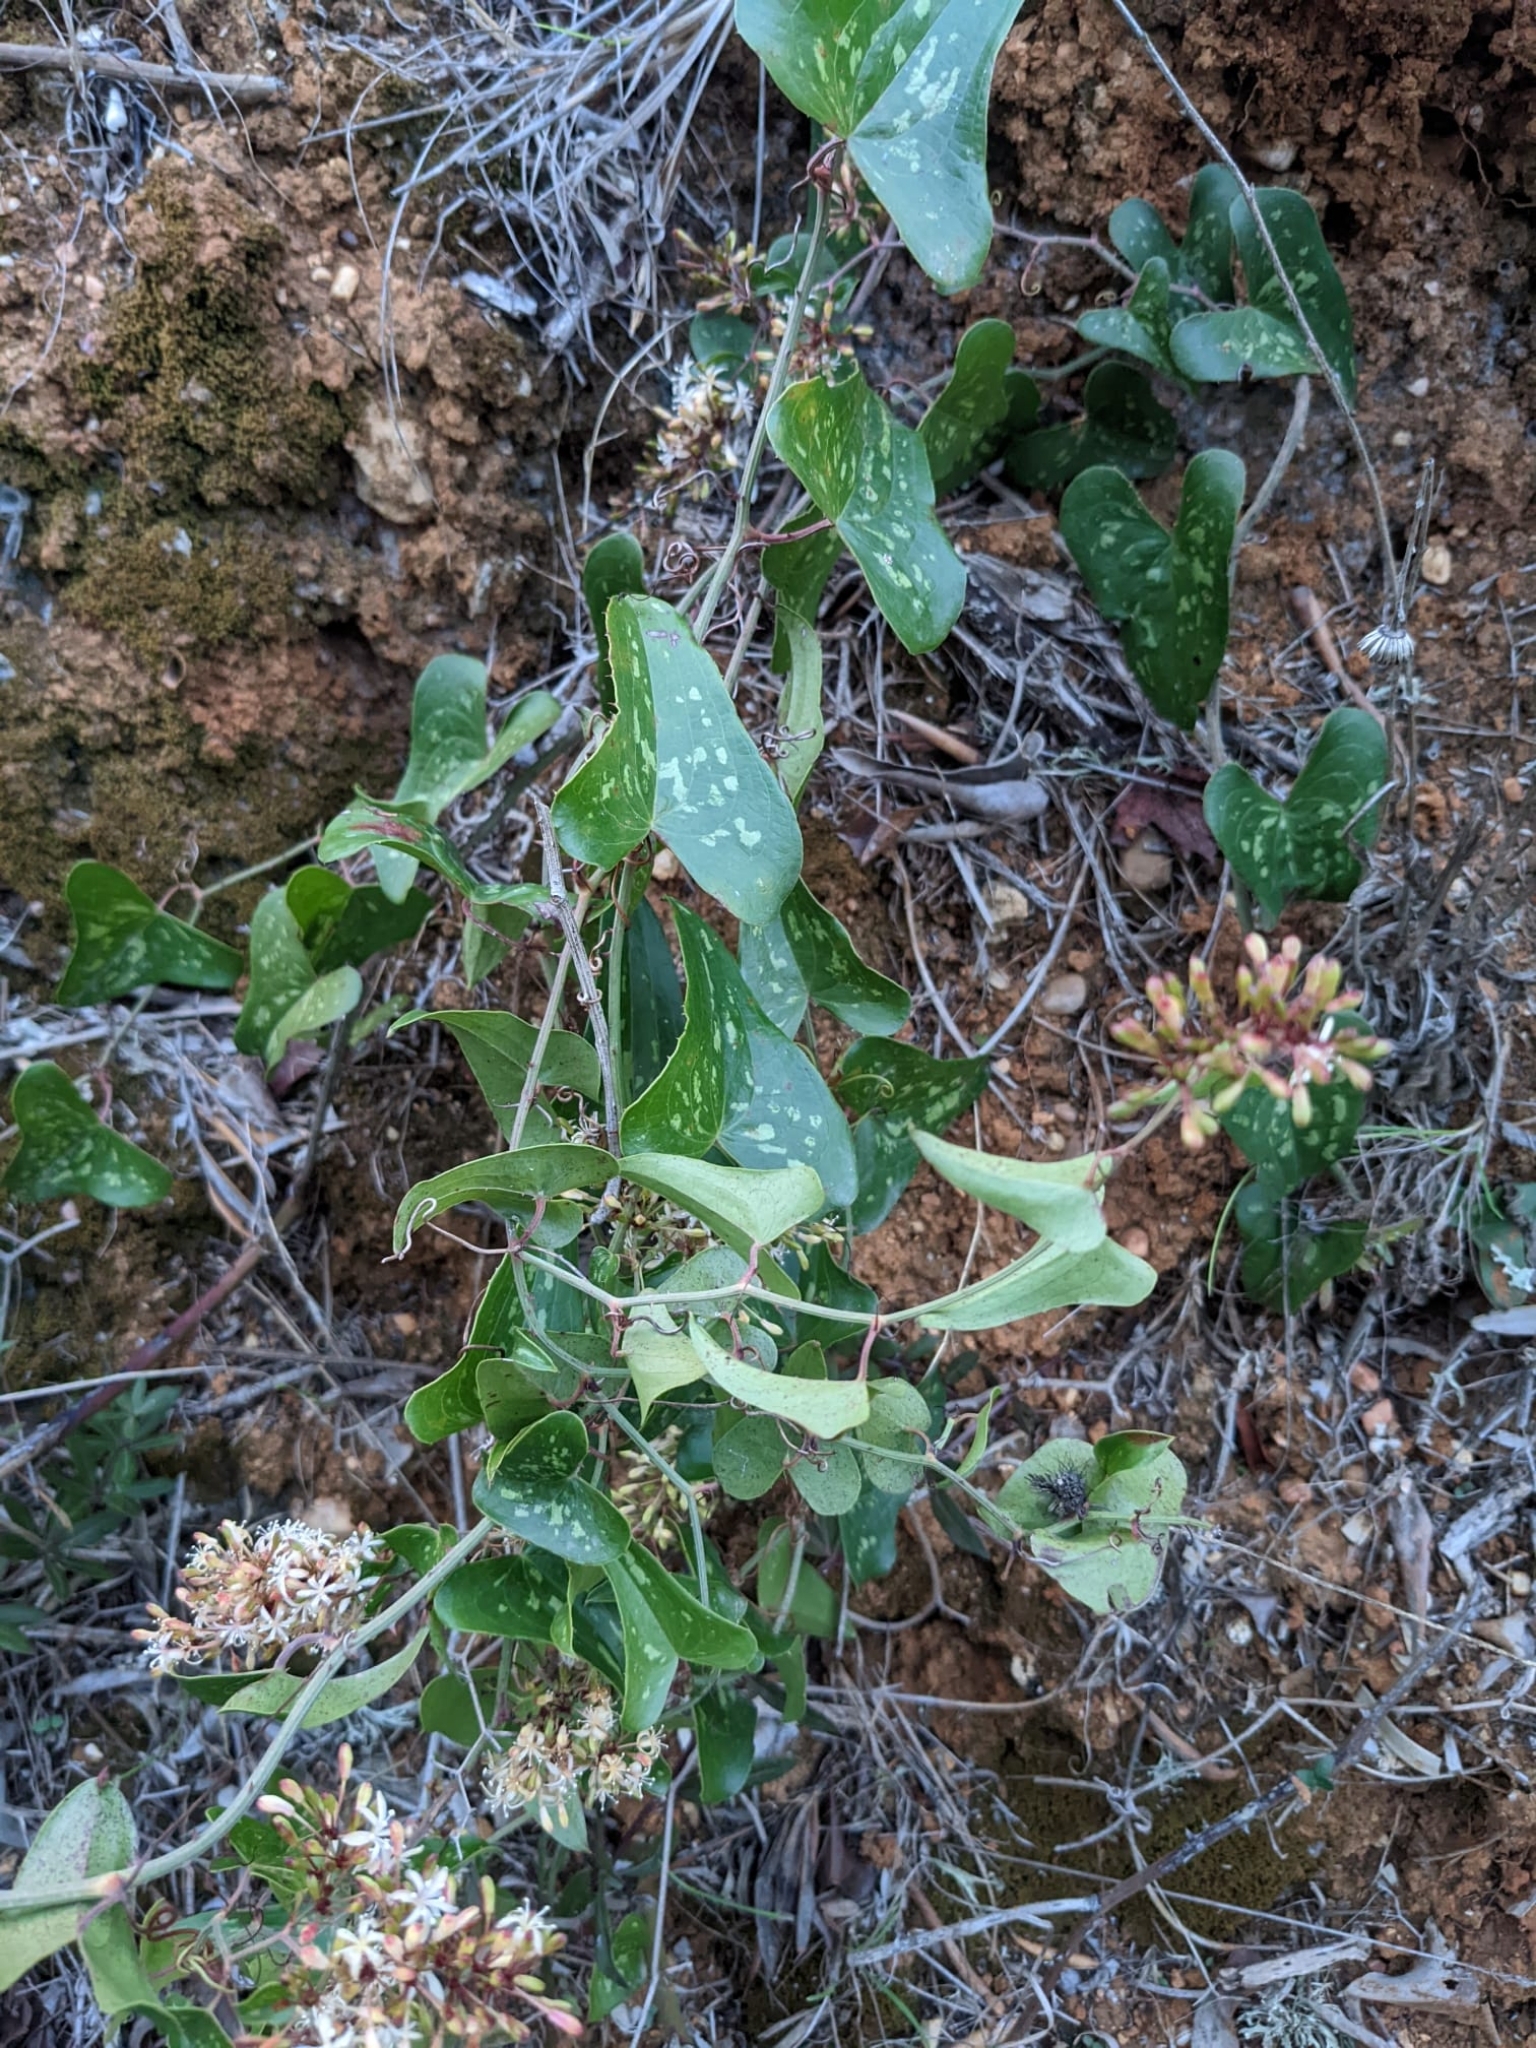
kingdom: Plantae
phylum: Tracheophyta
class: Liliopsida
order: Liliales
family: Smilacaceae
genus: Smilax
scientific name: Smilax aspera
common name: Common smilax
